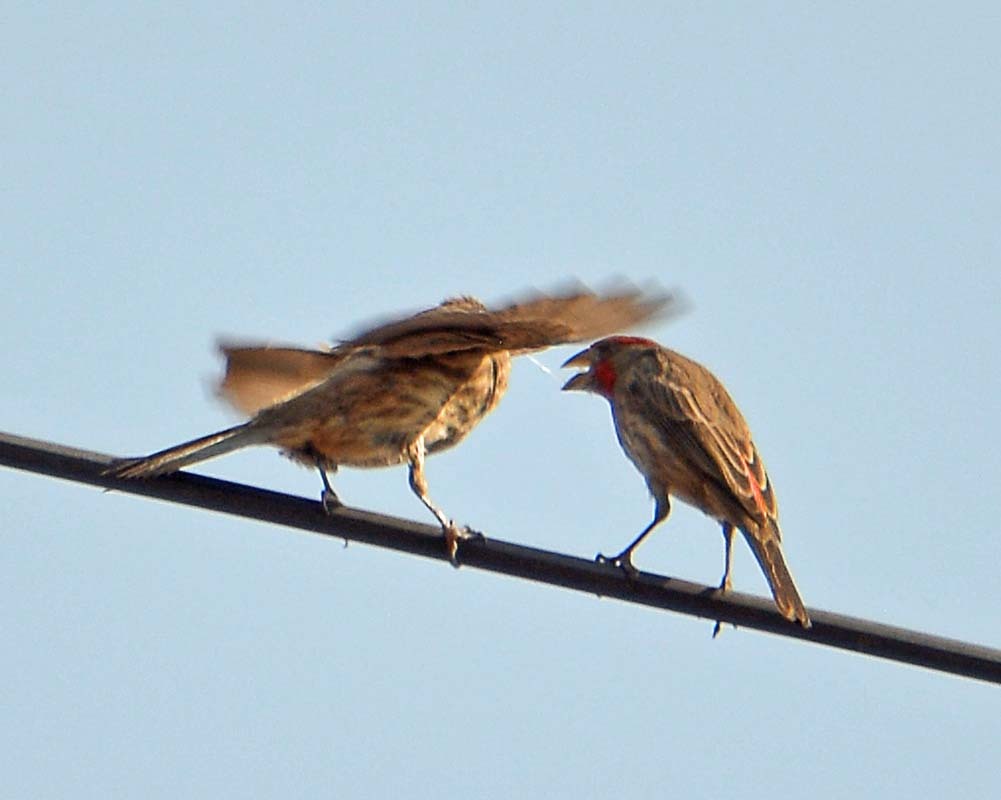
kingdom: Animalia
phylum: Chordata
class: Aves
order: Passeriformes
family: Fringillidae
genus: Haemorhous
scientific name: Haemorhous mexicanus
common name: House finch
